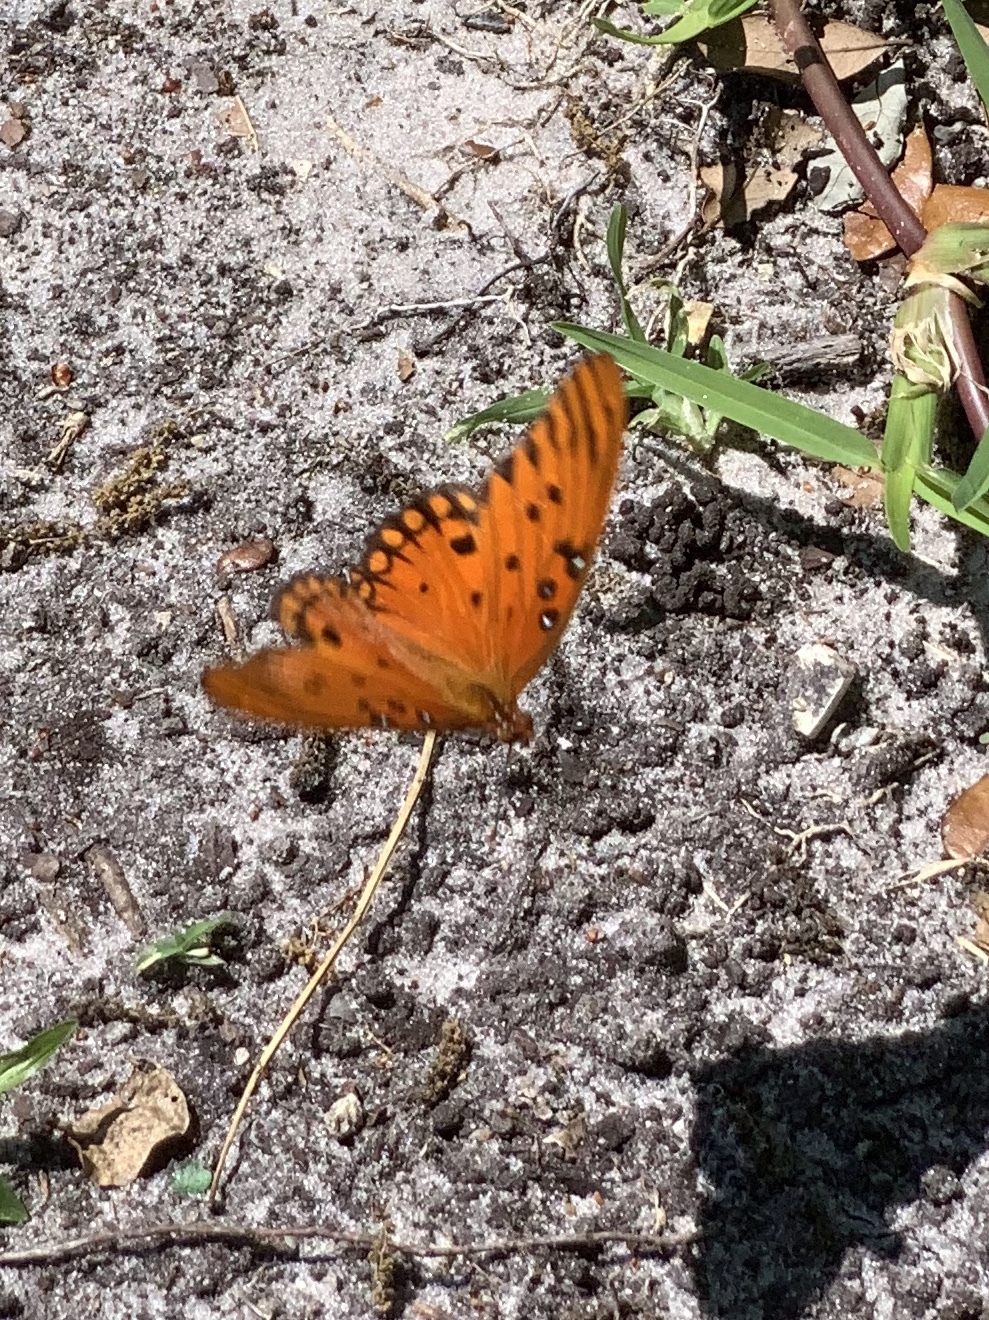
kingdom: Animalia
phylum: Arthropoda
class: Insecta
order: Lepidoptera
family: Nymphalidae
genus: Dione
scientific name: Dione vanillae
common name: Gulf fritillary
